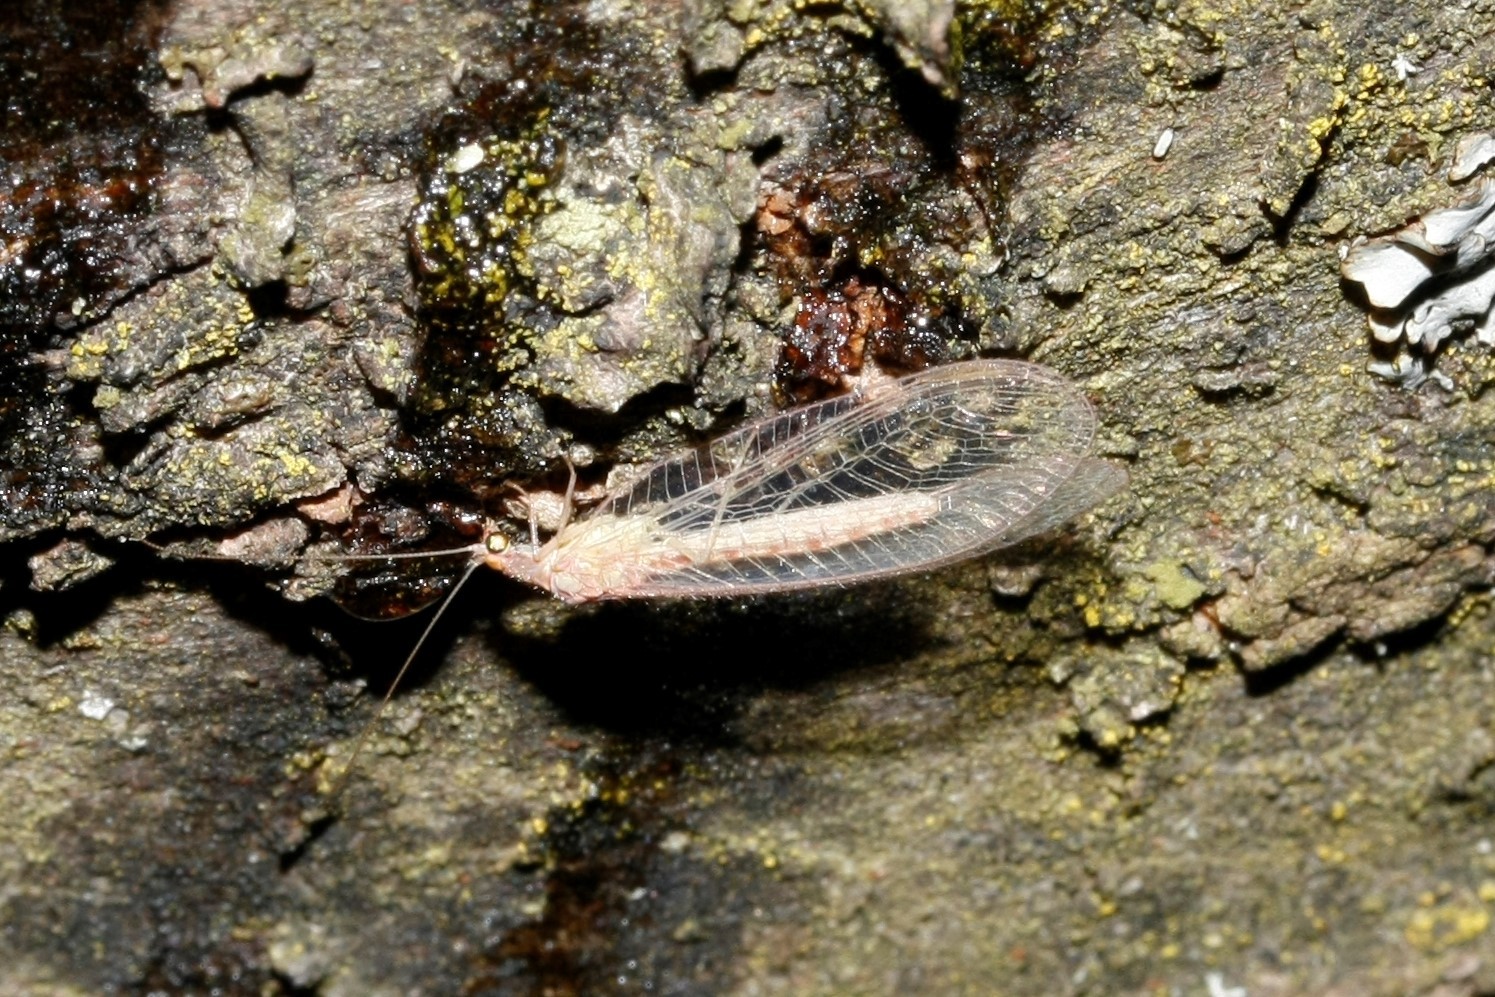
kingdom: Animalia
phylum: Arthropoda
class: Insecta
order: Neuroptera
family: Chrysopidae
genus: Chrysoperla
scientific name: Chrysoperla
